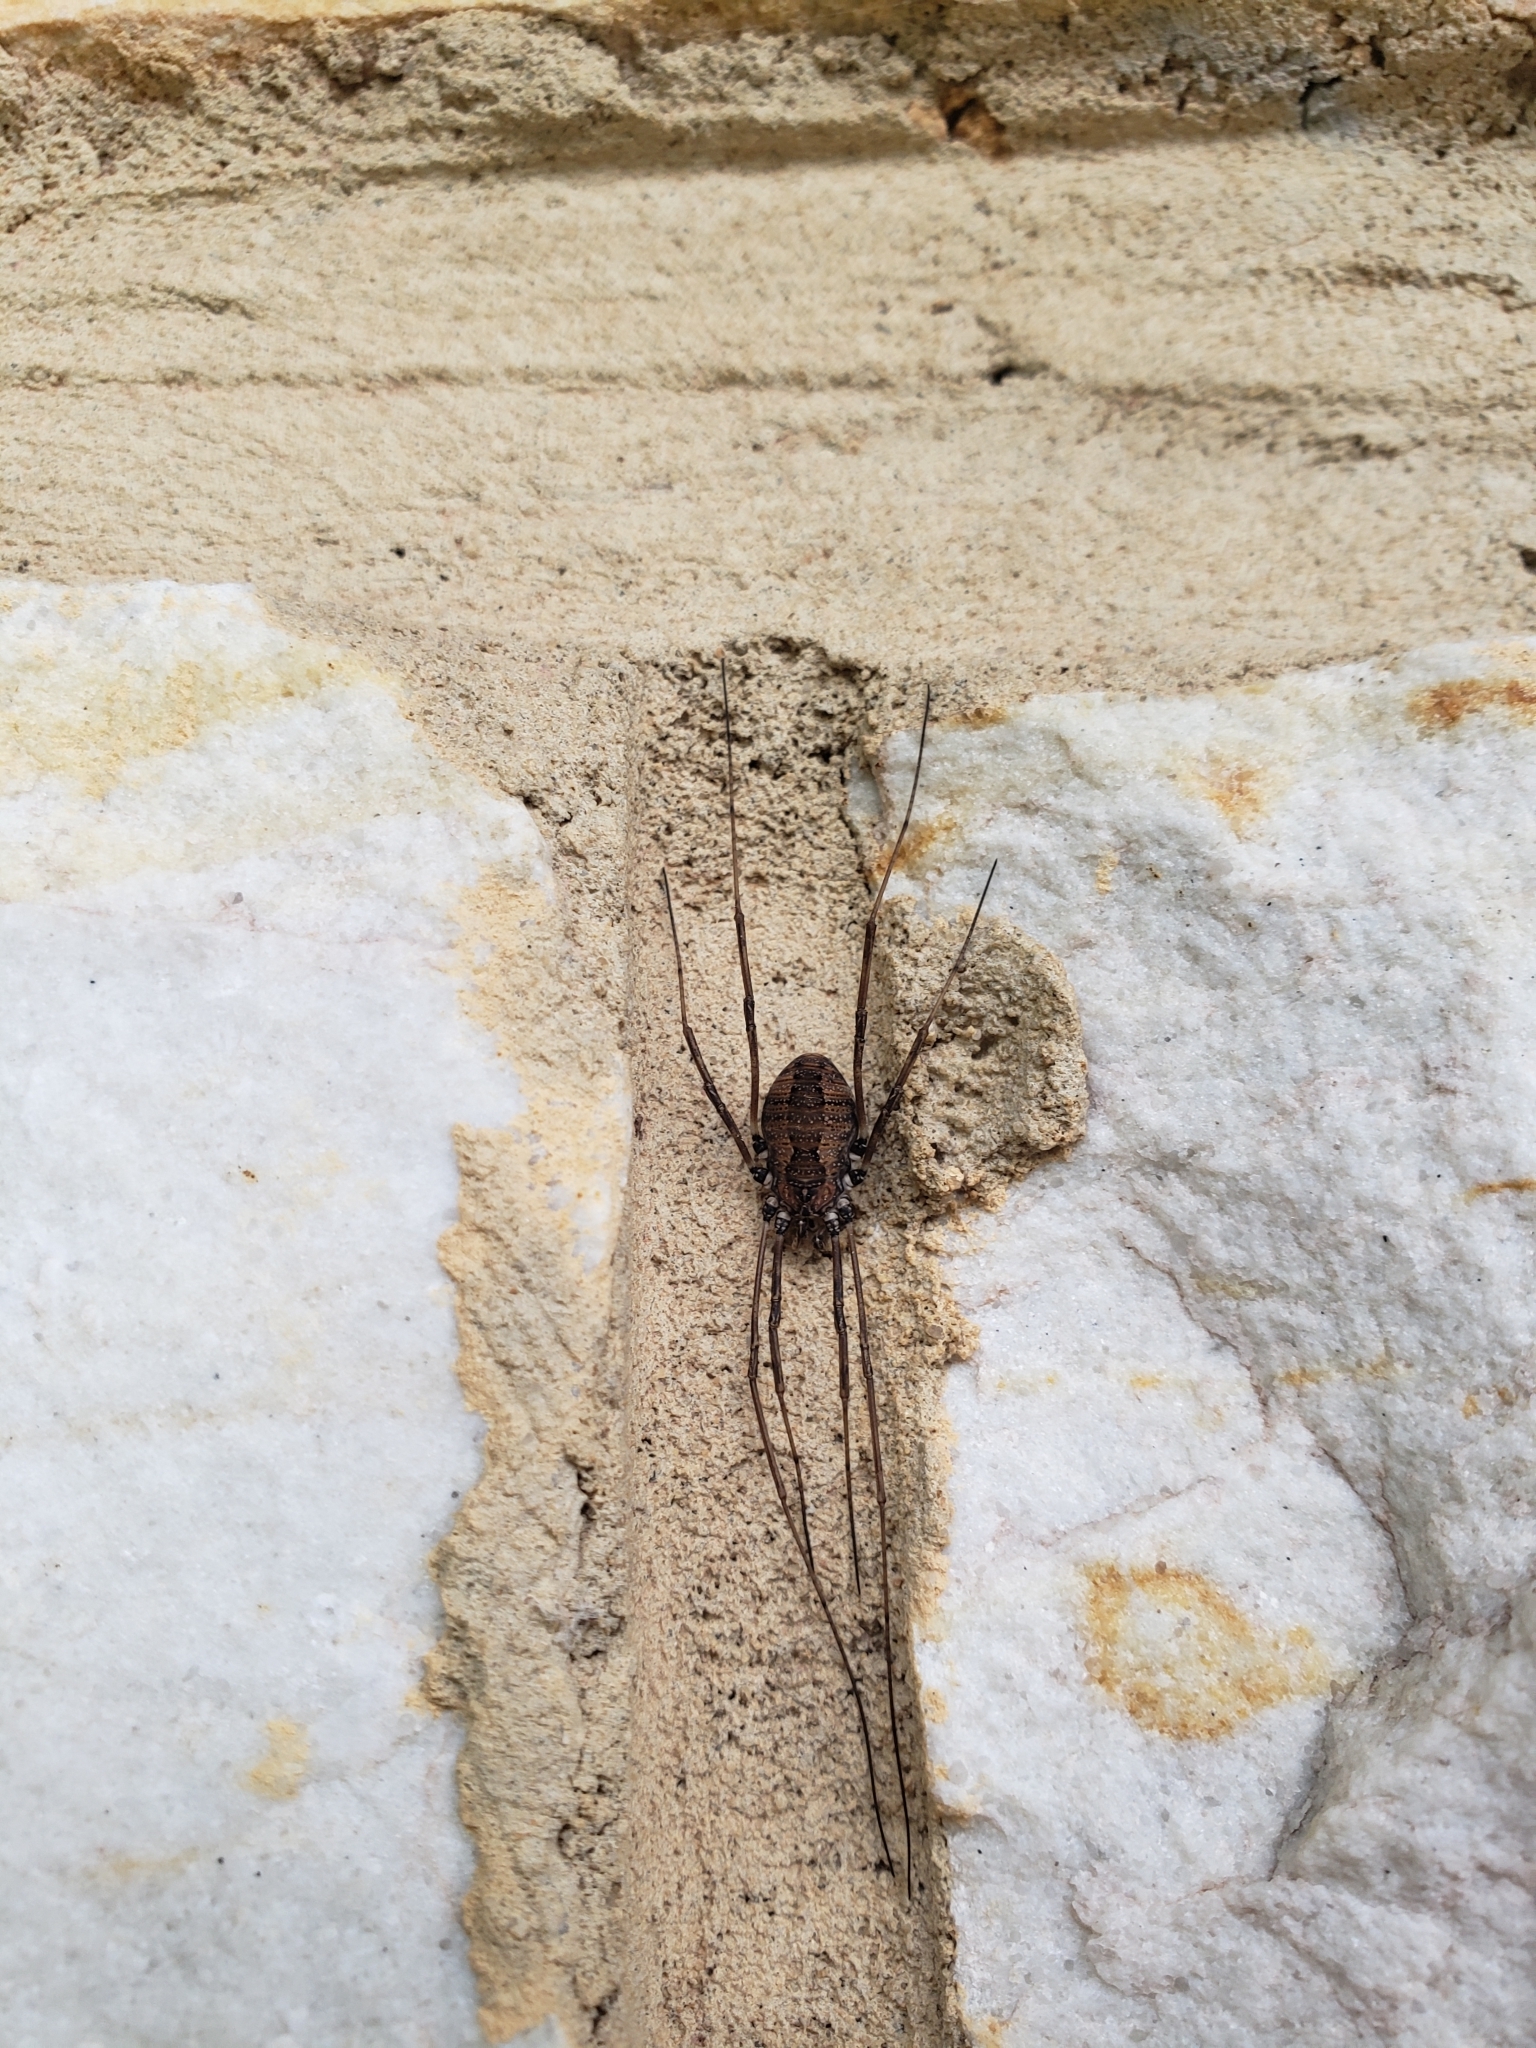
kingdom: Animalia
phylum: Arthropoda
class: Arachnida
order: Opiliones
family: Sclerosomatidae
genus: Hadrobunus
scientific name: Hadrobunus maculosus
